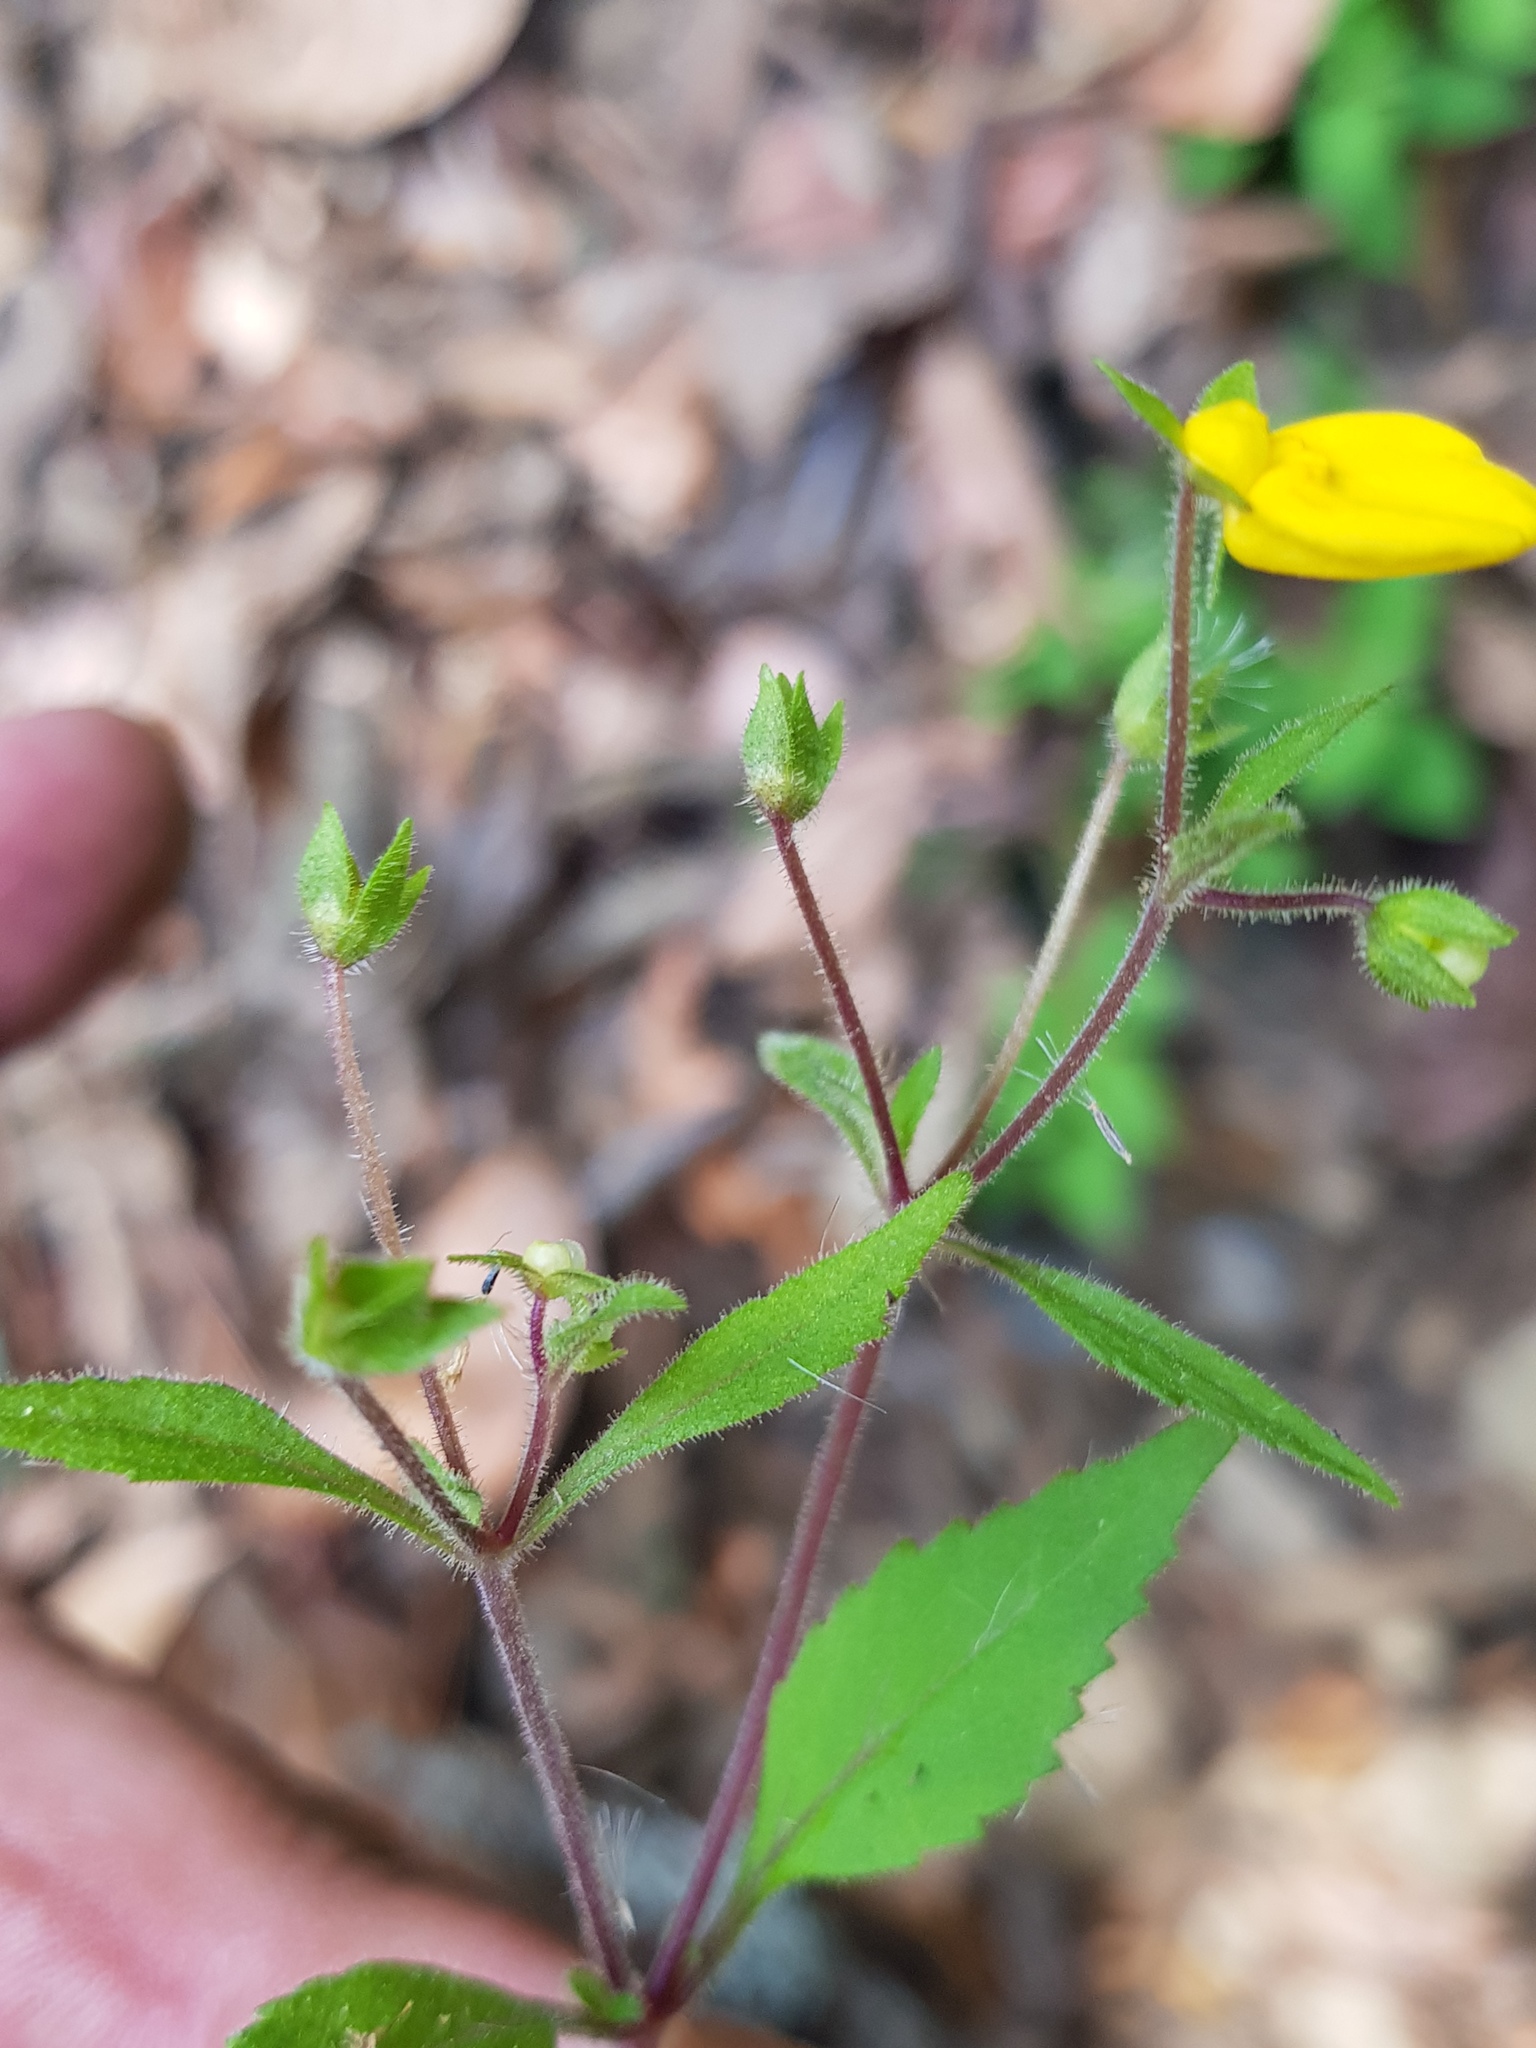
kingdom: Plantae
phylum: Tracheophyta
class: Magnoliopsida
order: Lamiales
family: Calceolariaceae
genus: Calceolaria
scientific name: Calceolaria mexicana
